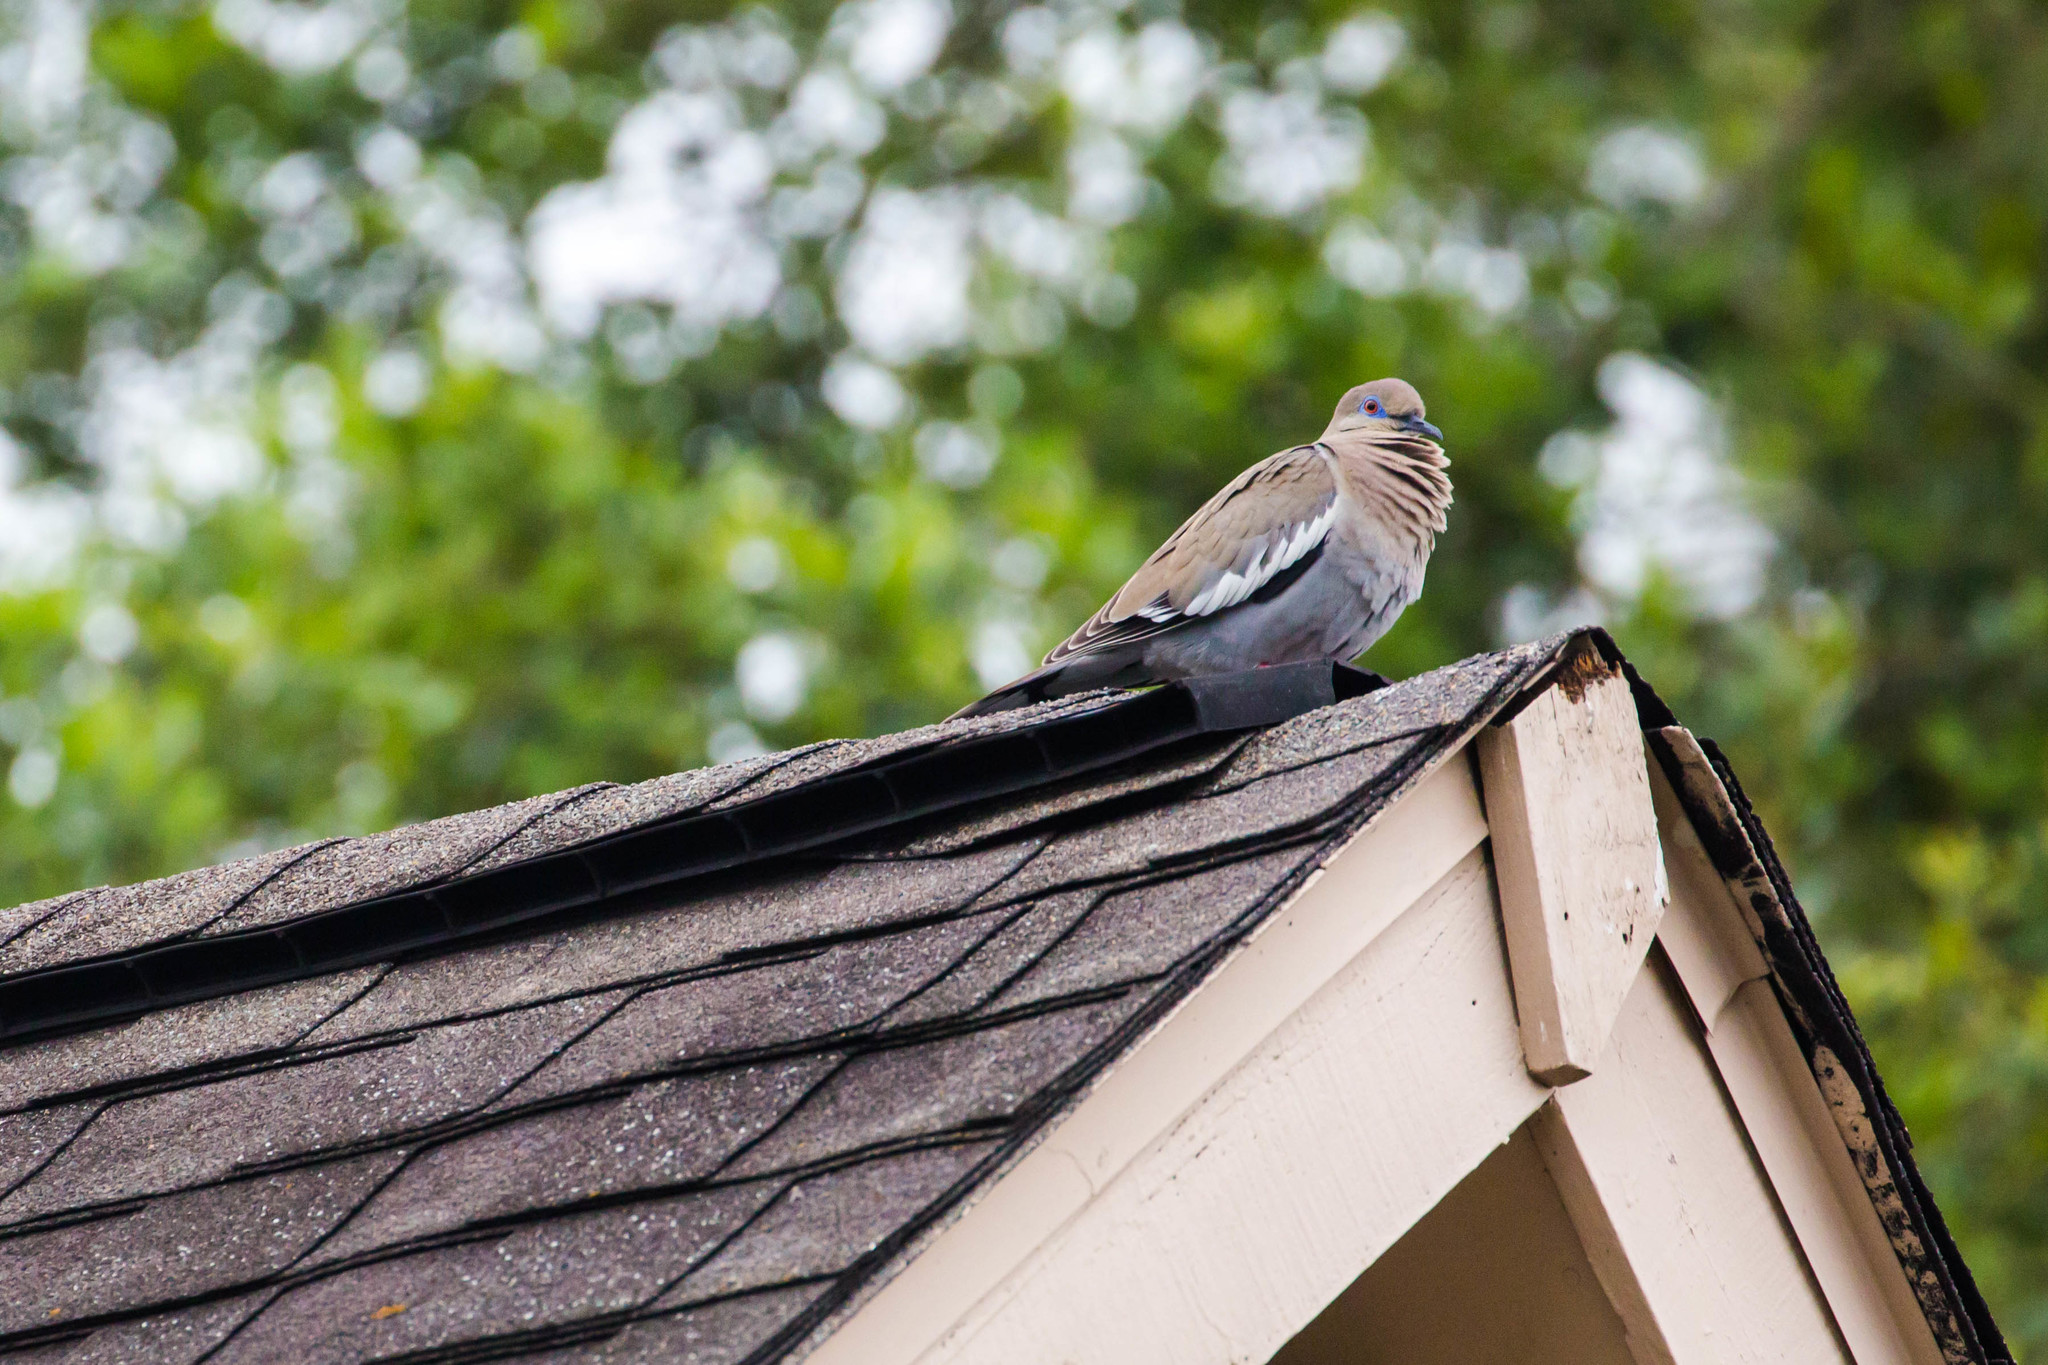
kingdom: Animalia
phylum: Chordata
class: Aves
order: Columbiformes
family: Columbidae
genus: Zenaida
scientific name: Zenaida asiatica
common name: White-winged dove
